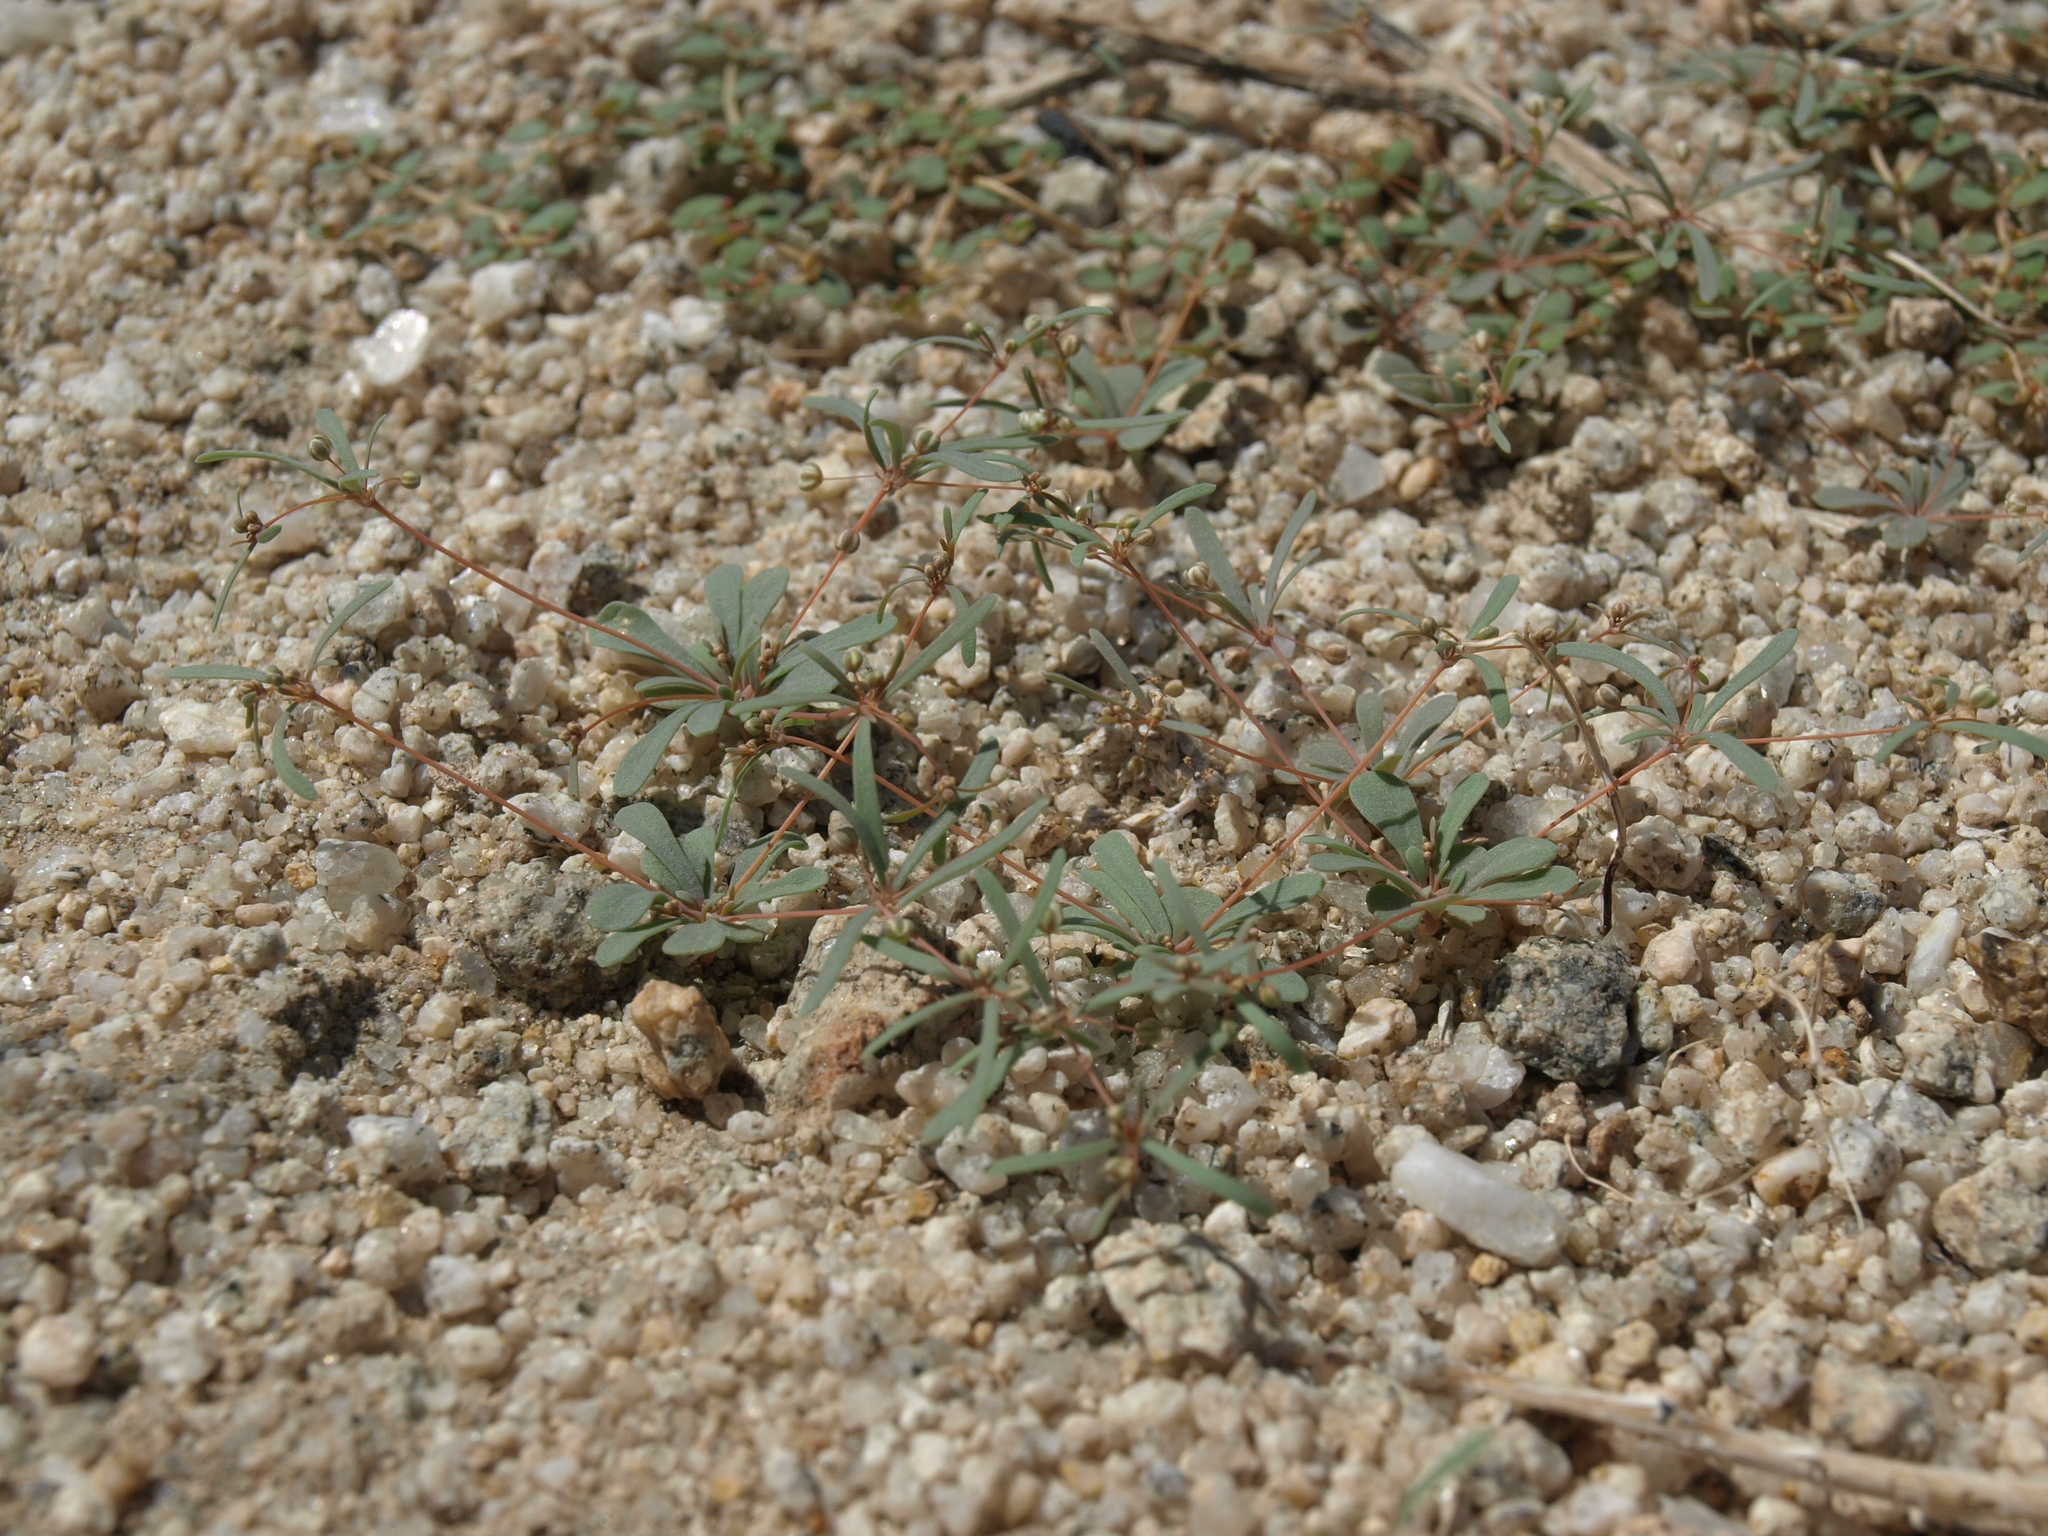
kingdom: Plantae
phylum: Tracheophyta
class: Magnoliopsida
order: Caryophyllales
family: Molluginaceae
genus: Hypertelis
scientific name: Hypertelis umbellata
